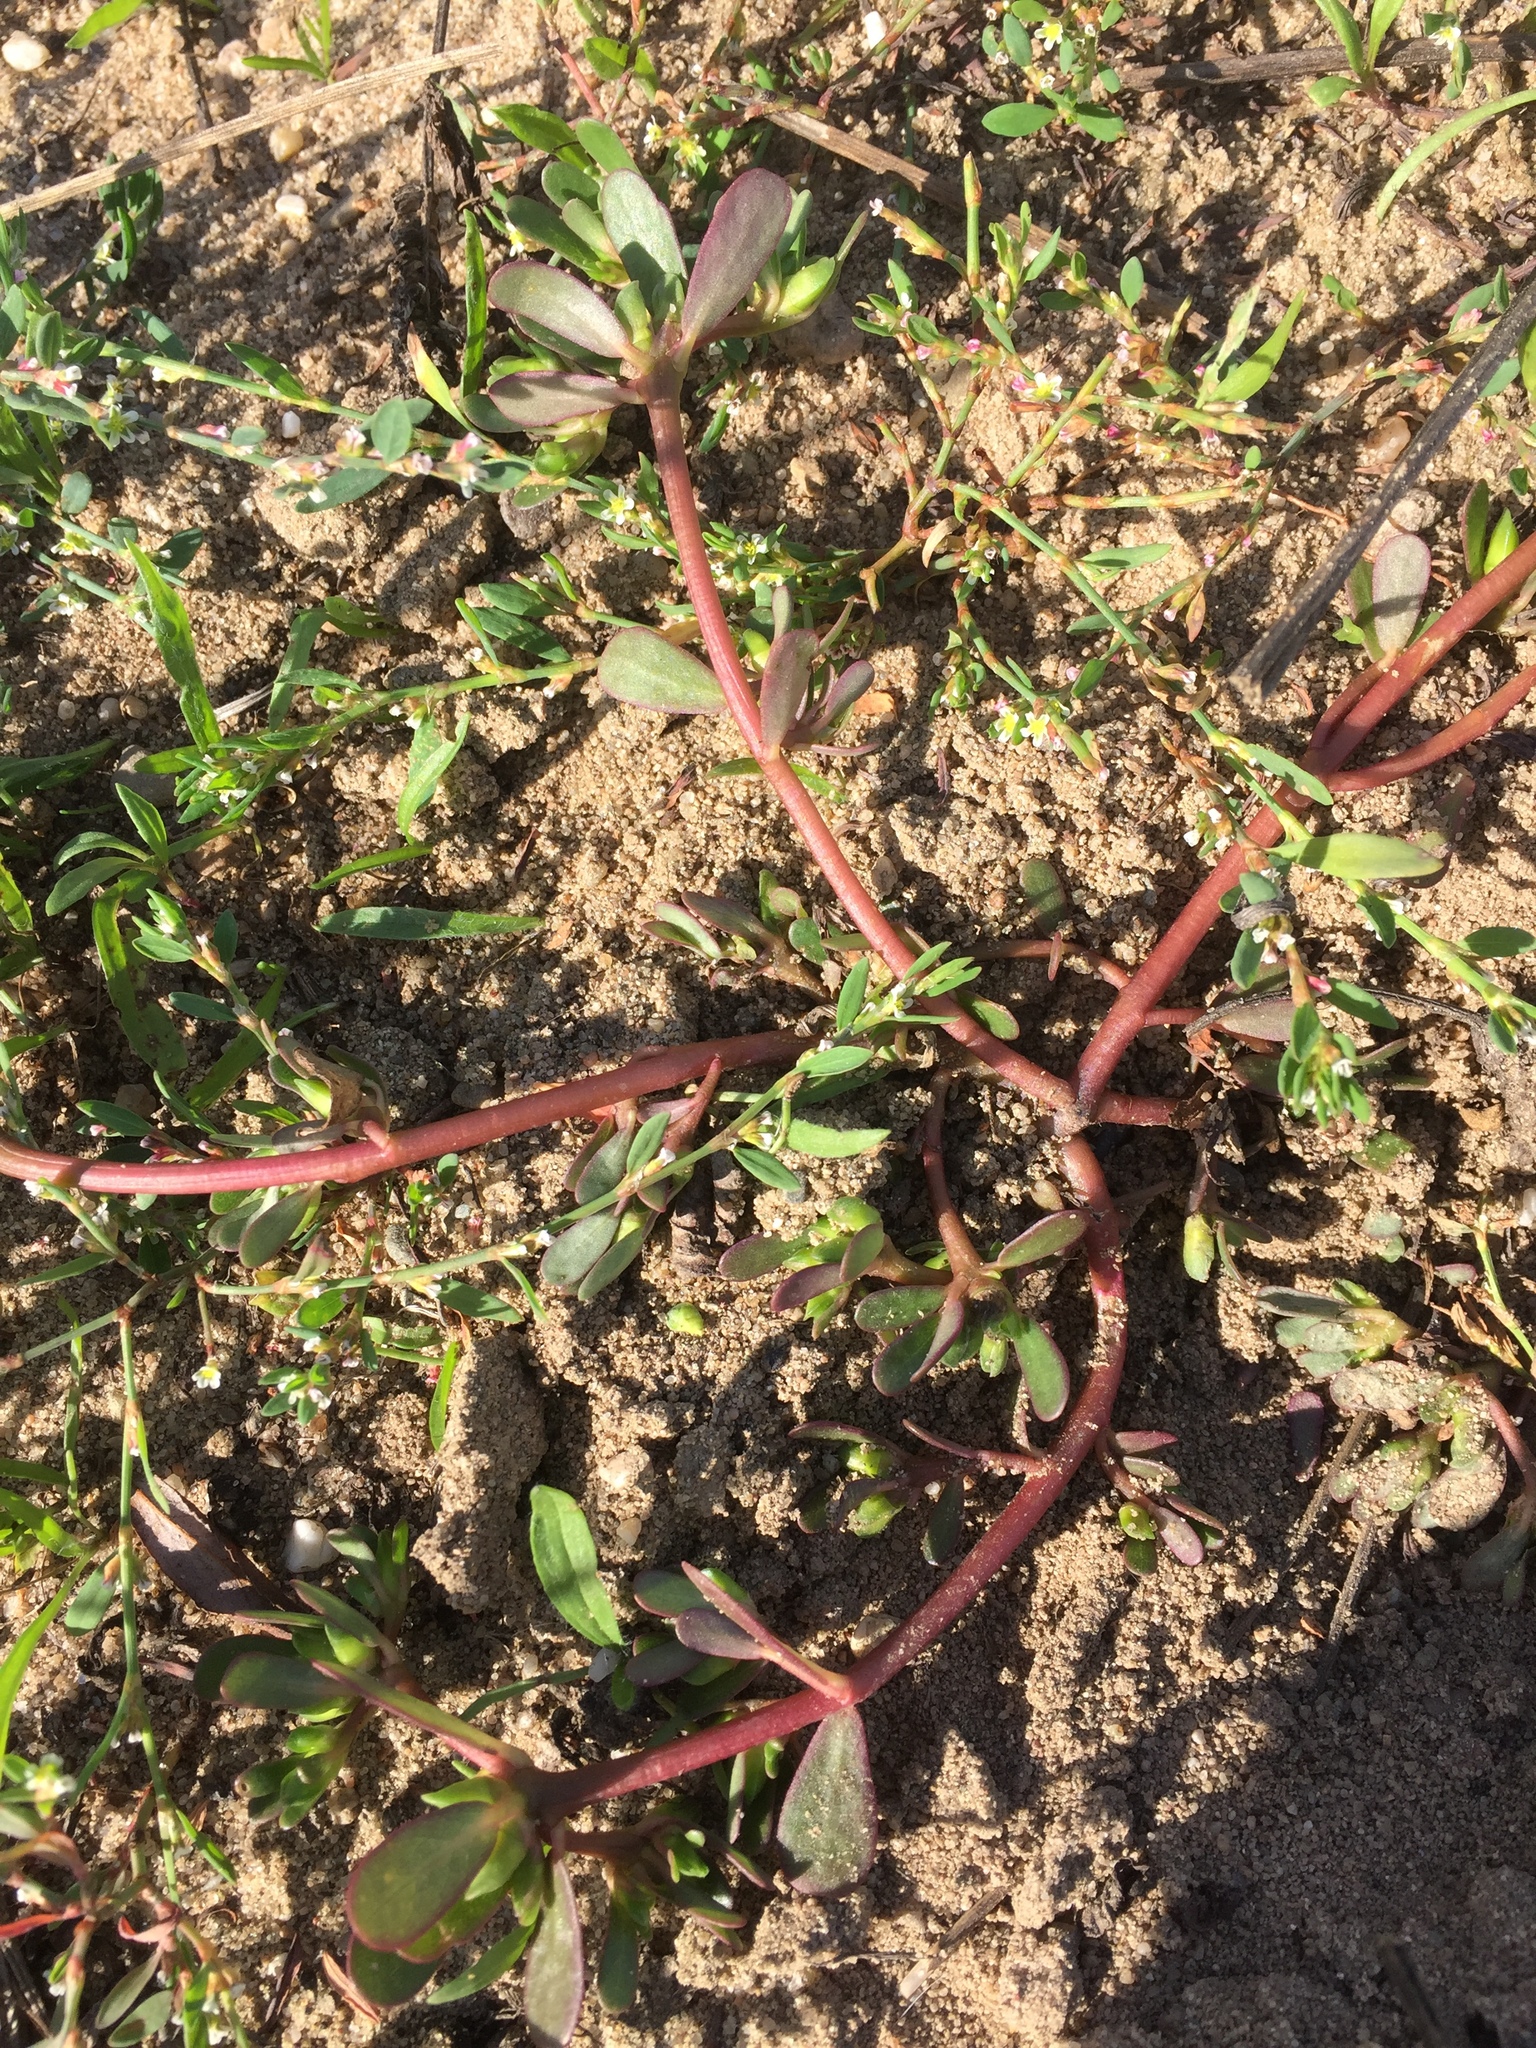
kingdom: Plantae
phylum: Tracheophyta
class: Magnoliopsida
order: Caryophyllales
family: Portulacaceae
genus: Portulaca
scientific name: Portulaca oleracea
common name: Common purslane
